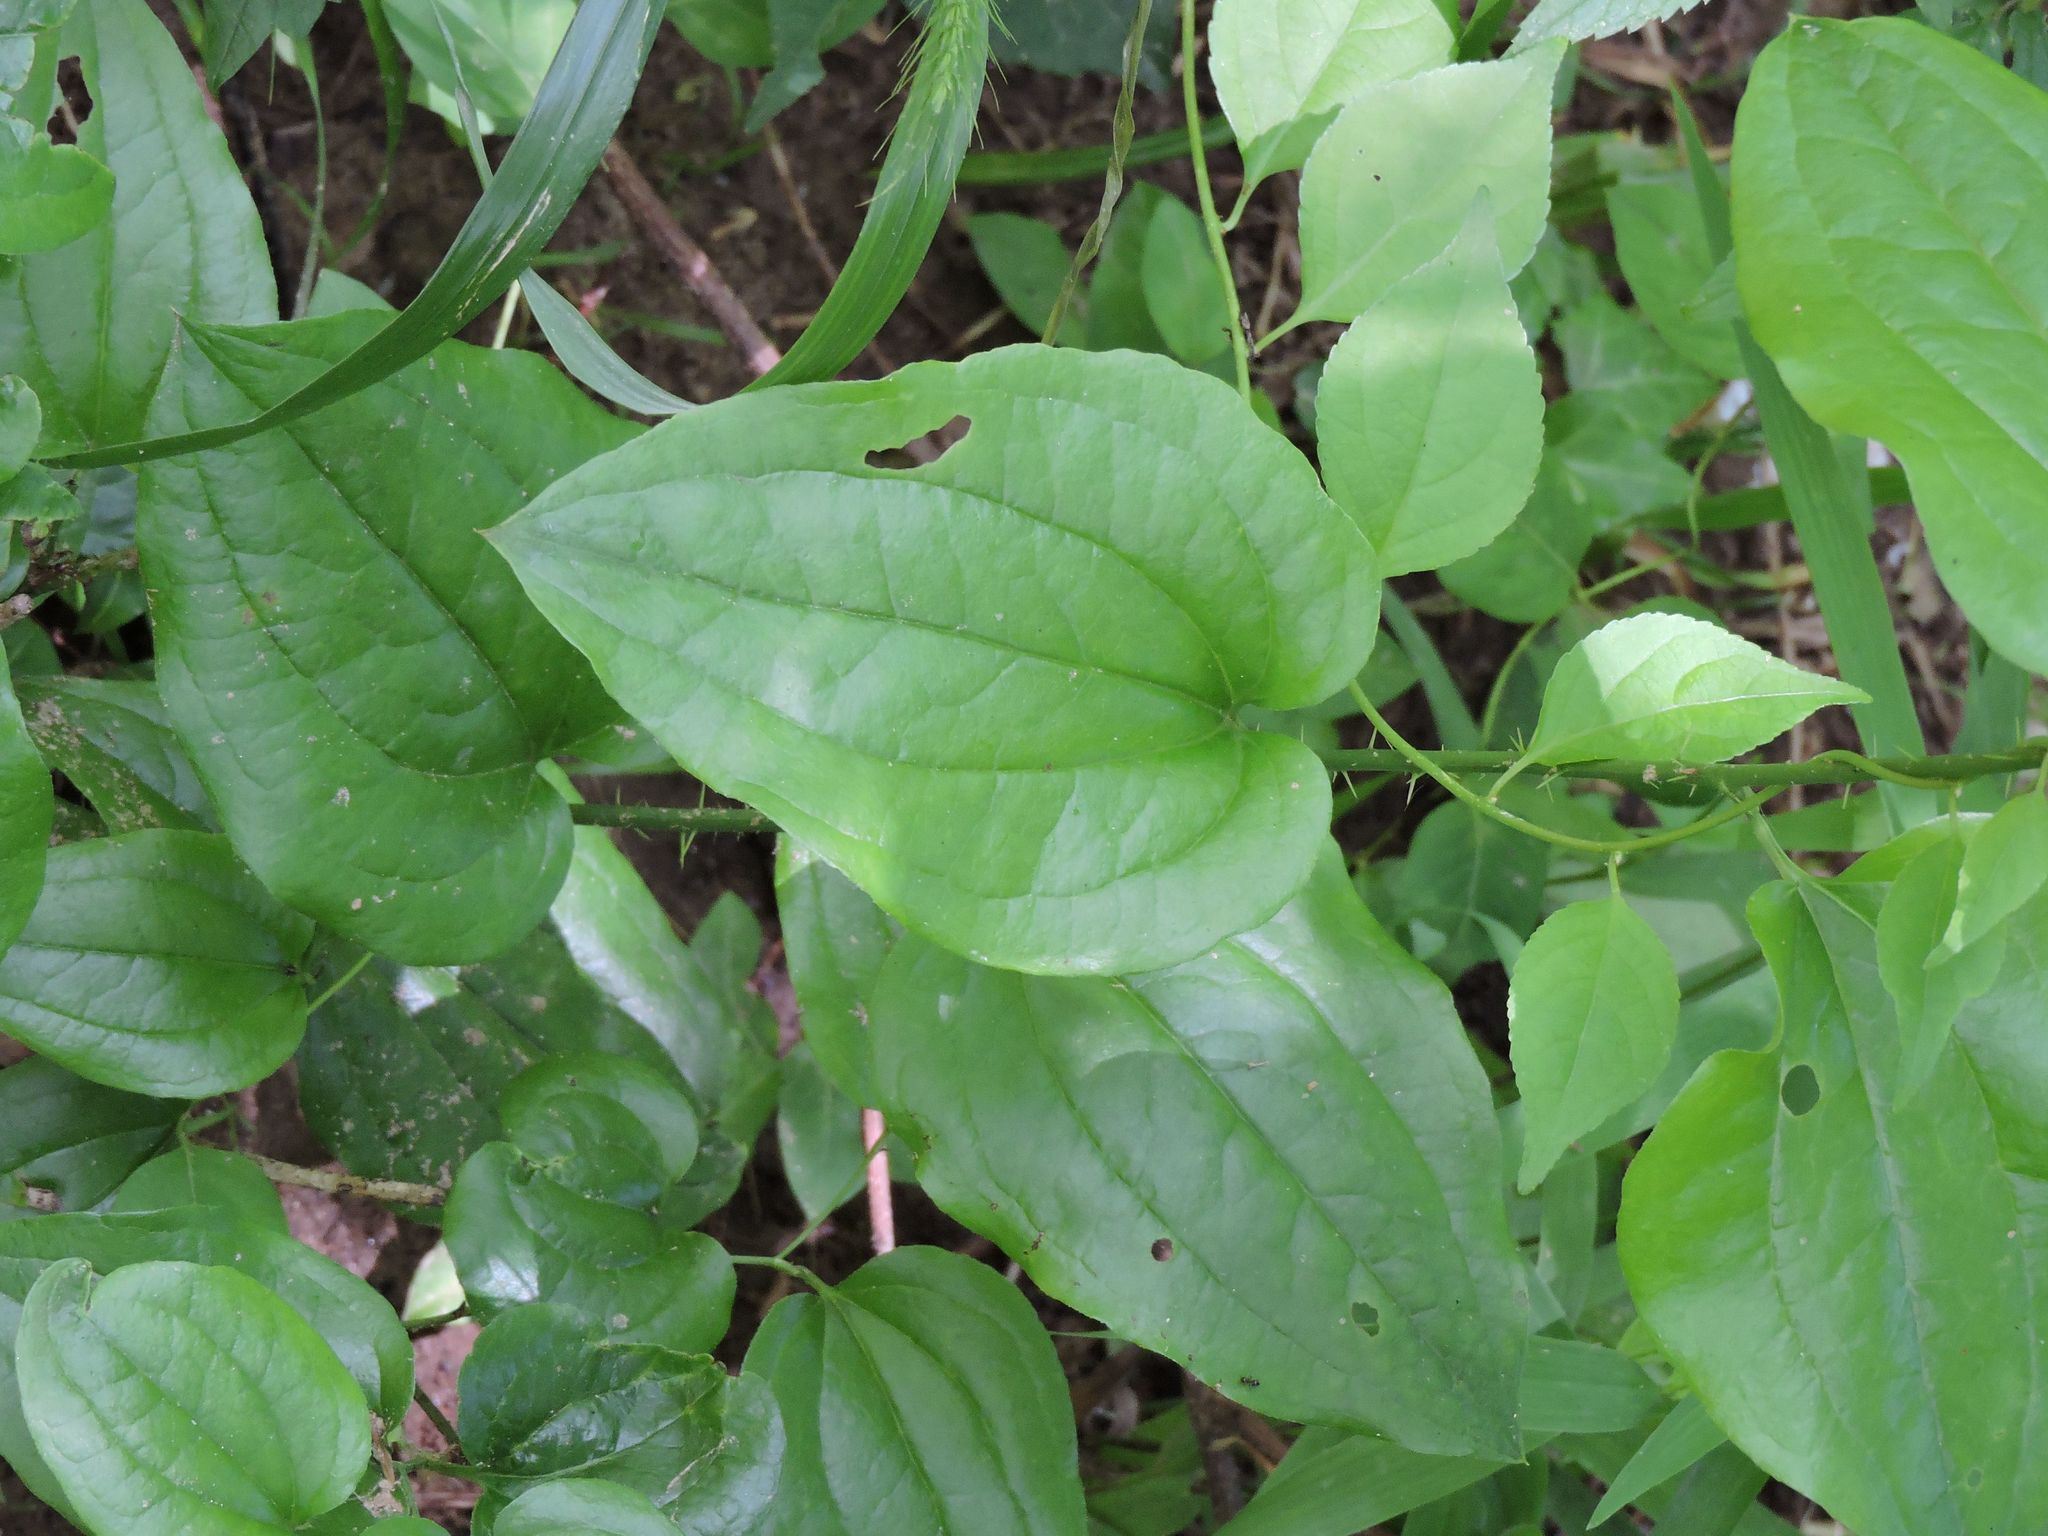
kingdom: Plantae
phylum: Tracheophyta
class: Liliopsida
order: Liliales
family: Smilacaceae
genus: Smilax
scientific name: Smilax tamnoides
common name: Hellfetter
